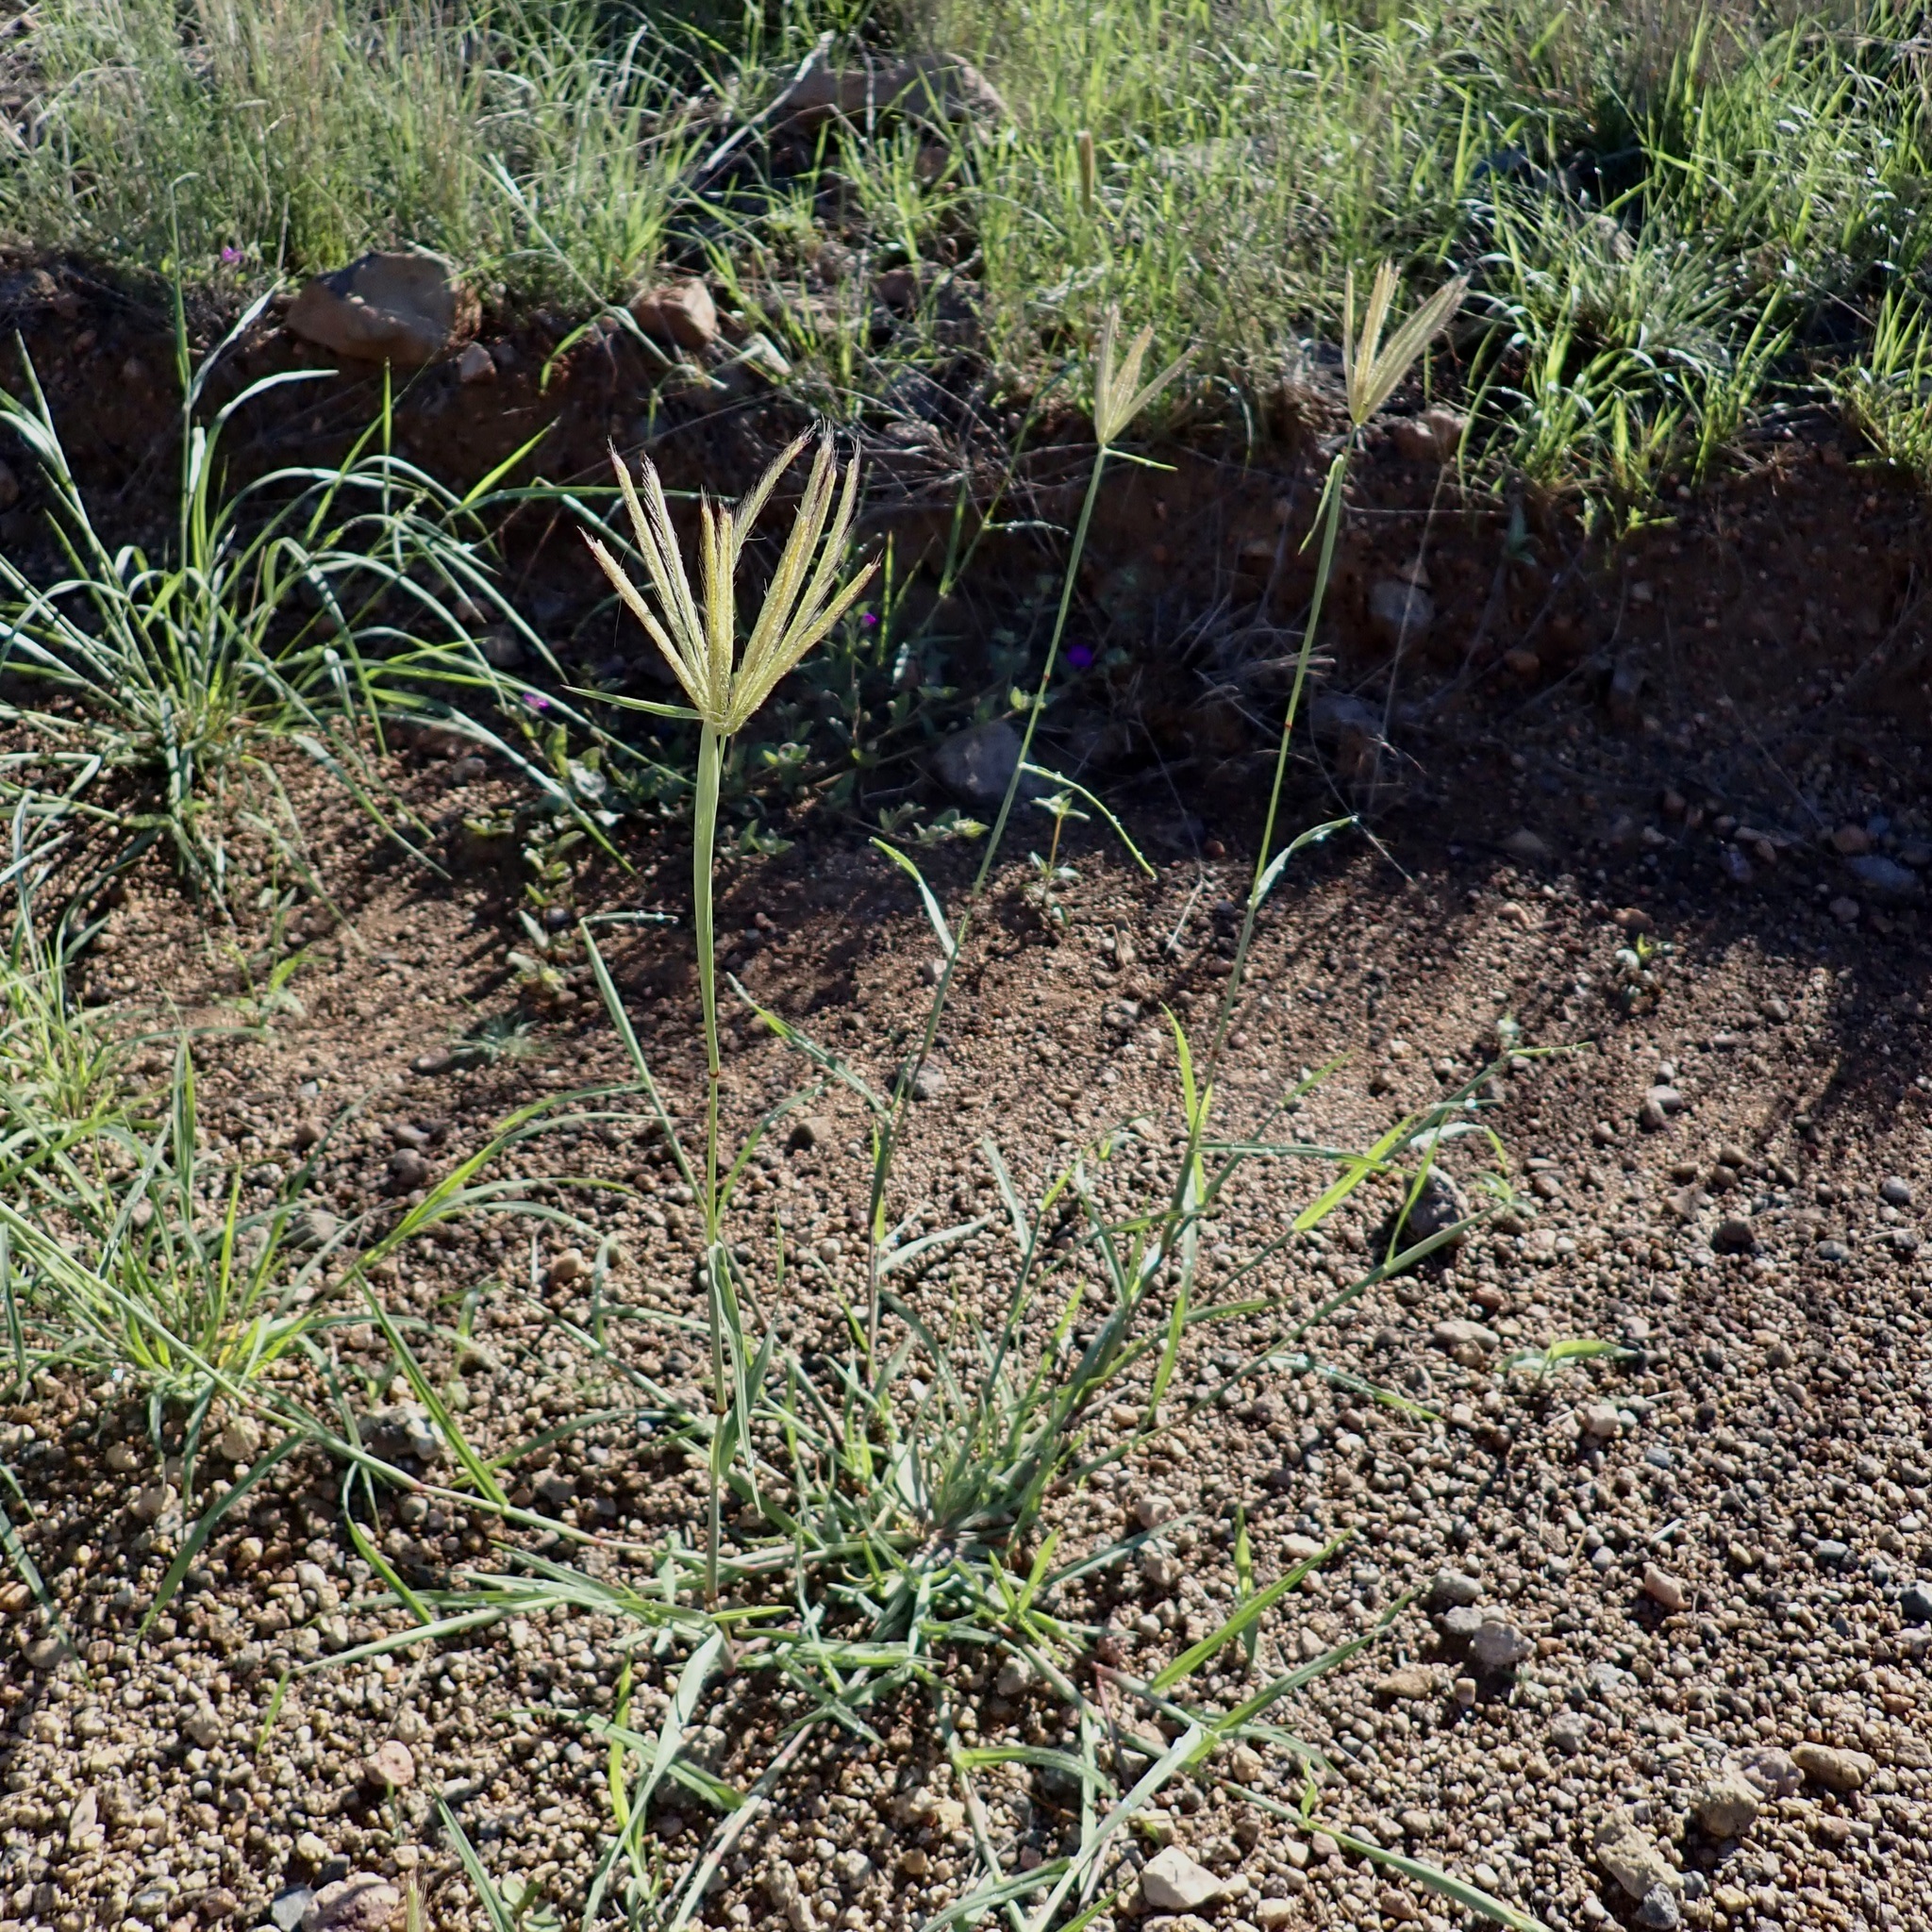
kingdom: Plantae
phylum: Tracheophyta
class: Liliopsida
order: Poales
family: Poaceae
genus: Chloris
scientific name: Chloris virgata
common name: Feathery rhodes-grass
